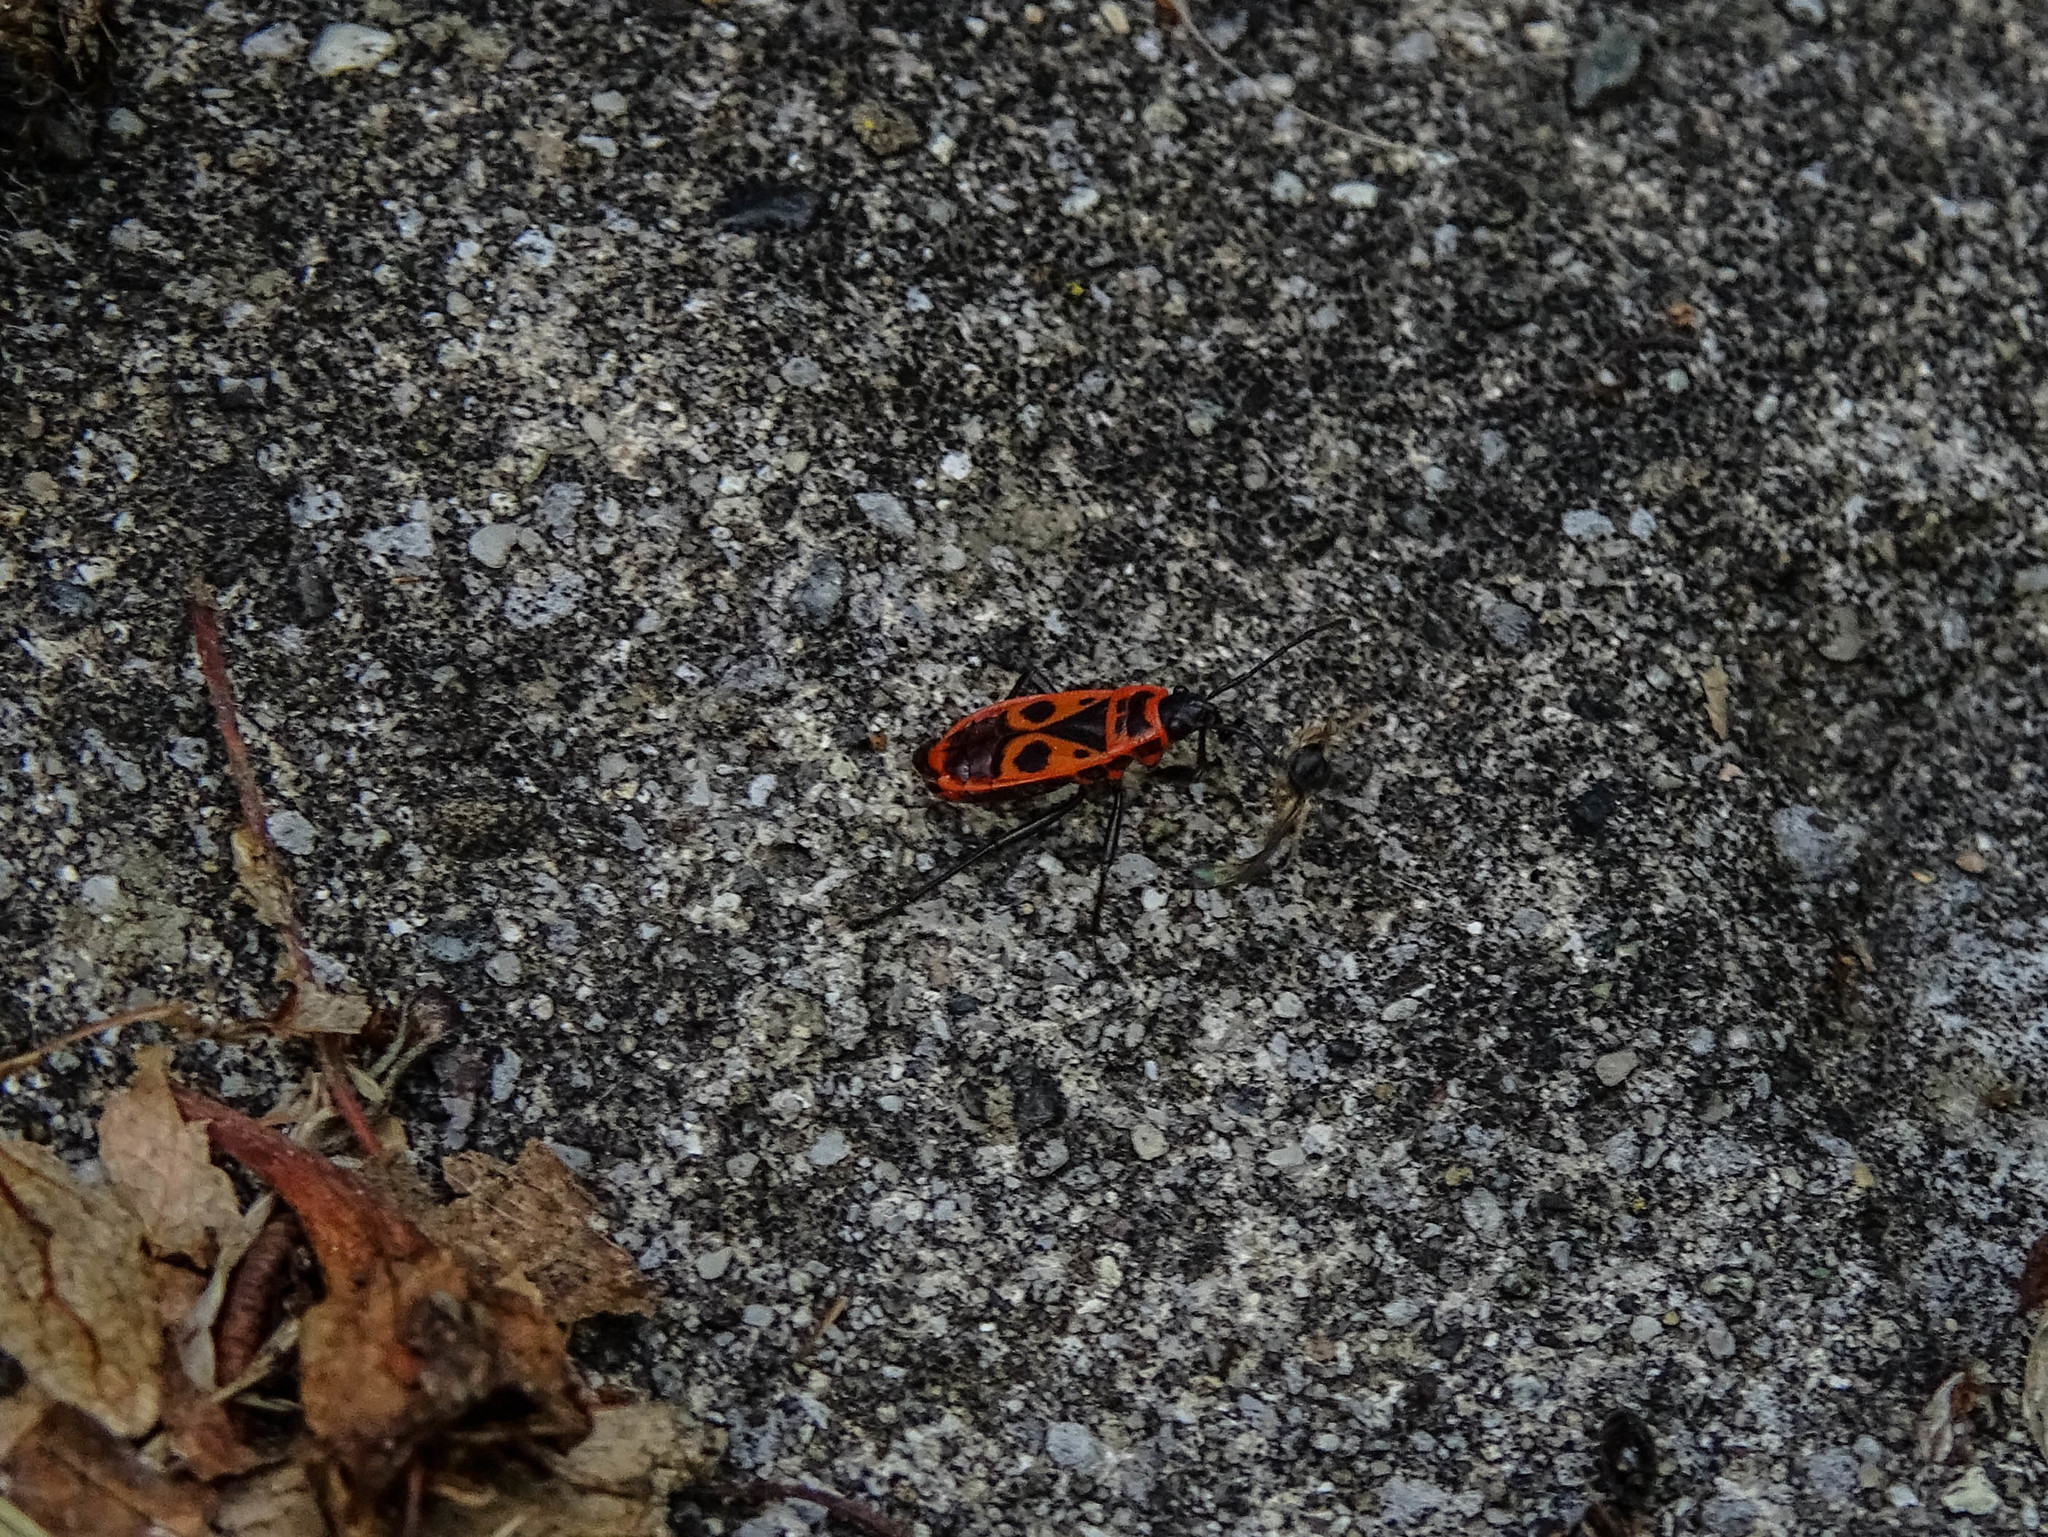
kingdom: Animalia
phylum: Arthropoda
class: Insecta
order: Hemiptera
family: Pyrrhocoridae
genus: Pyrrhocoris
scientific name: Pyrrhocoris apterus
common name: Firebug
